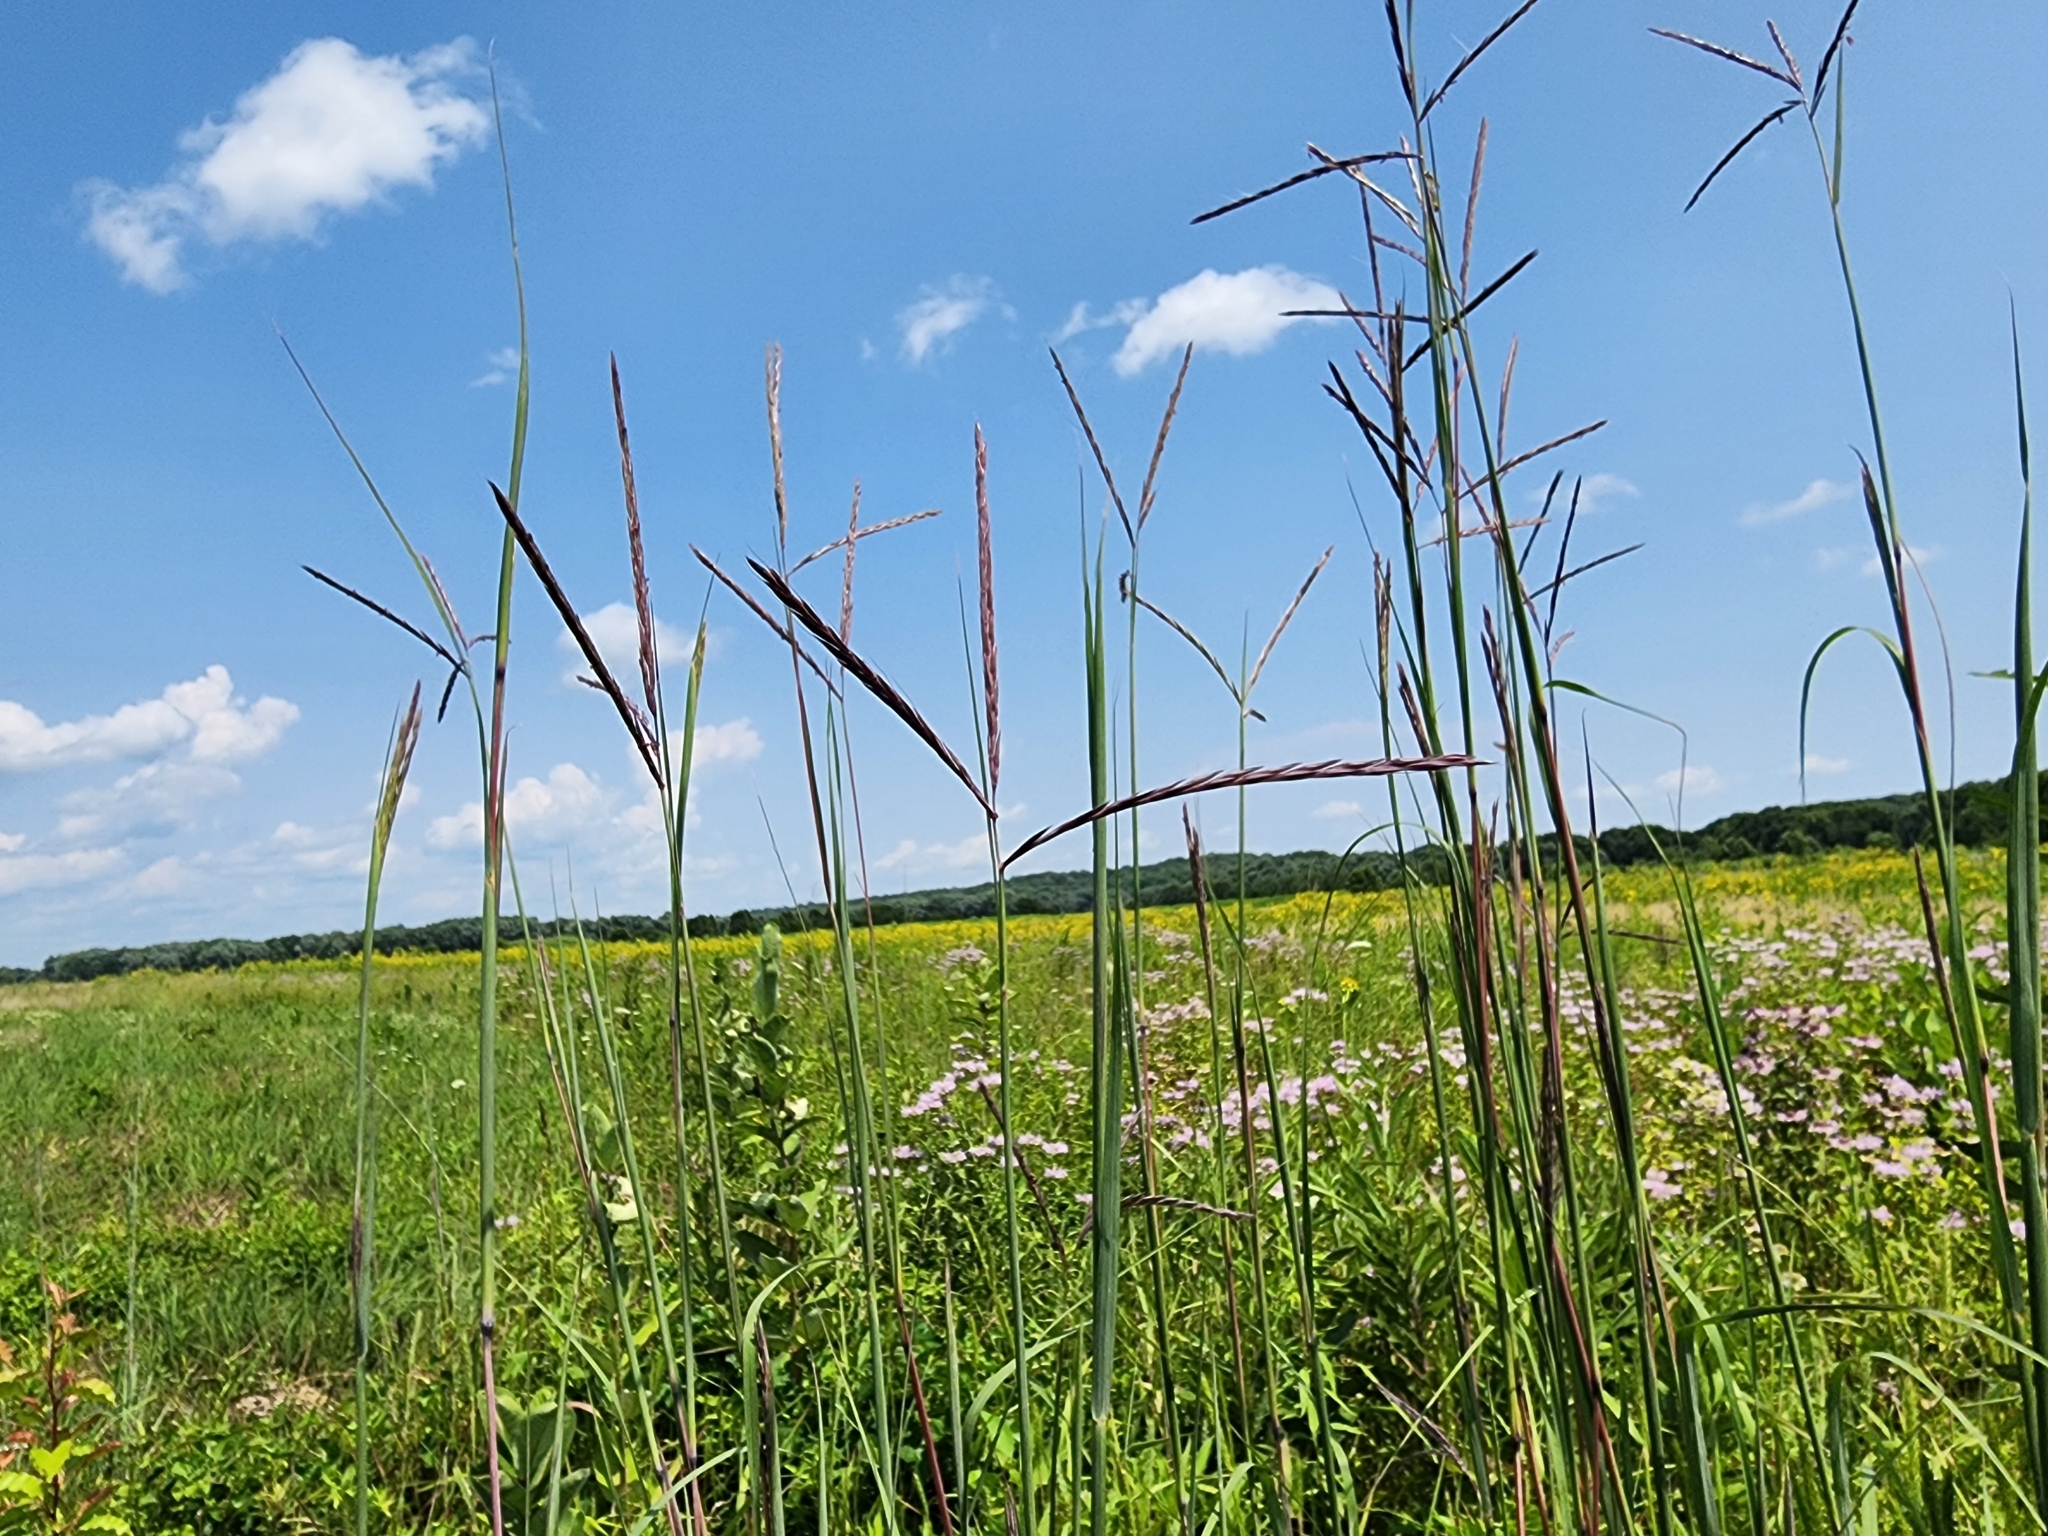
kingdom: Plantae
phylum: Tracheophyta
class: Liliopsida
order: Poales
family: Poaceae
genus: Andropogon
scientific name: Andropogon gerardi
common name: Big bluestem
